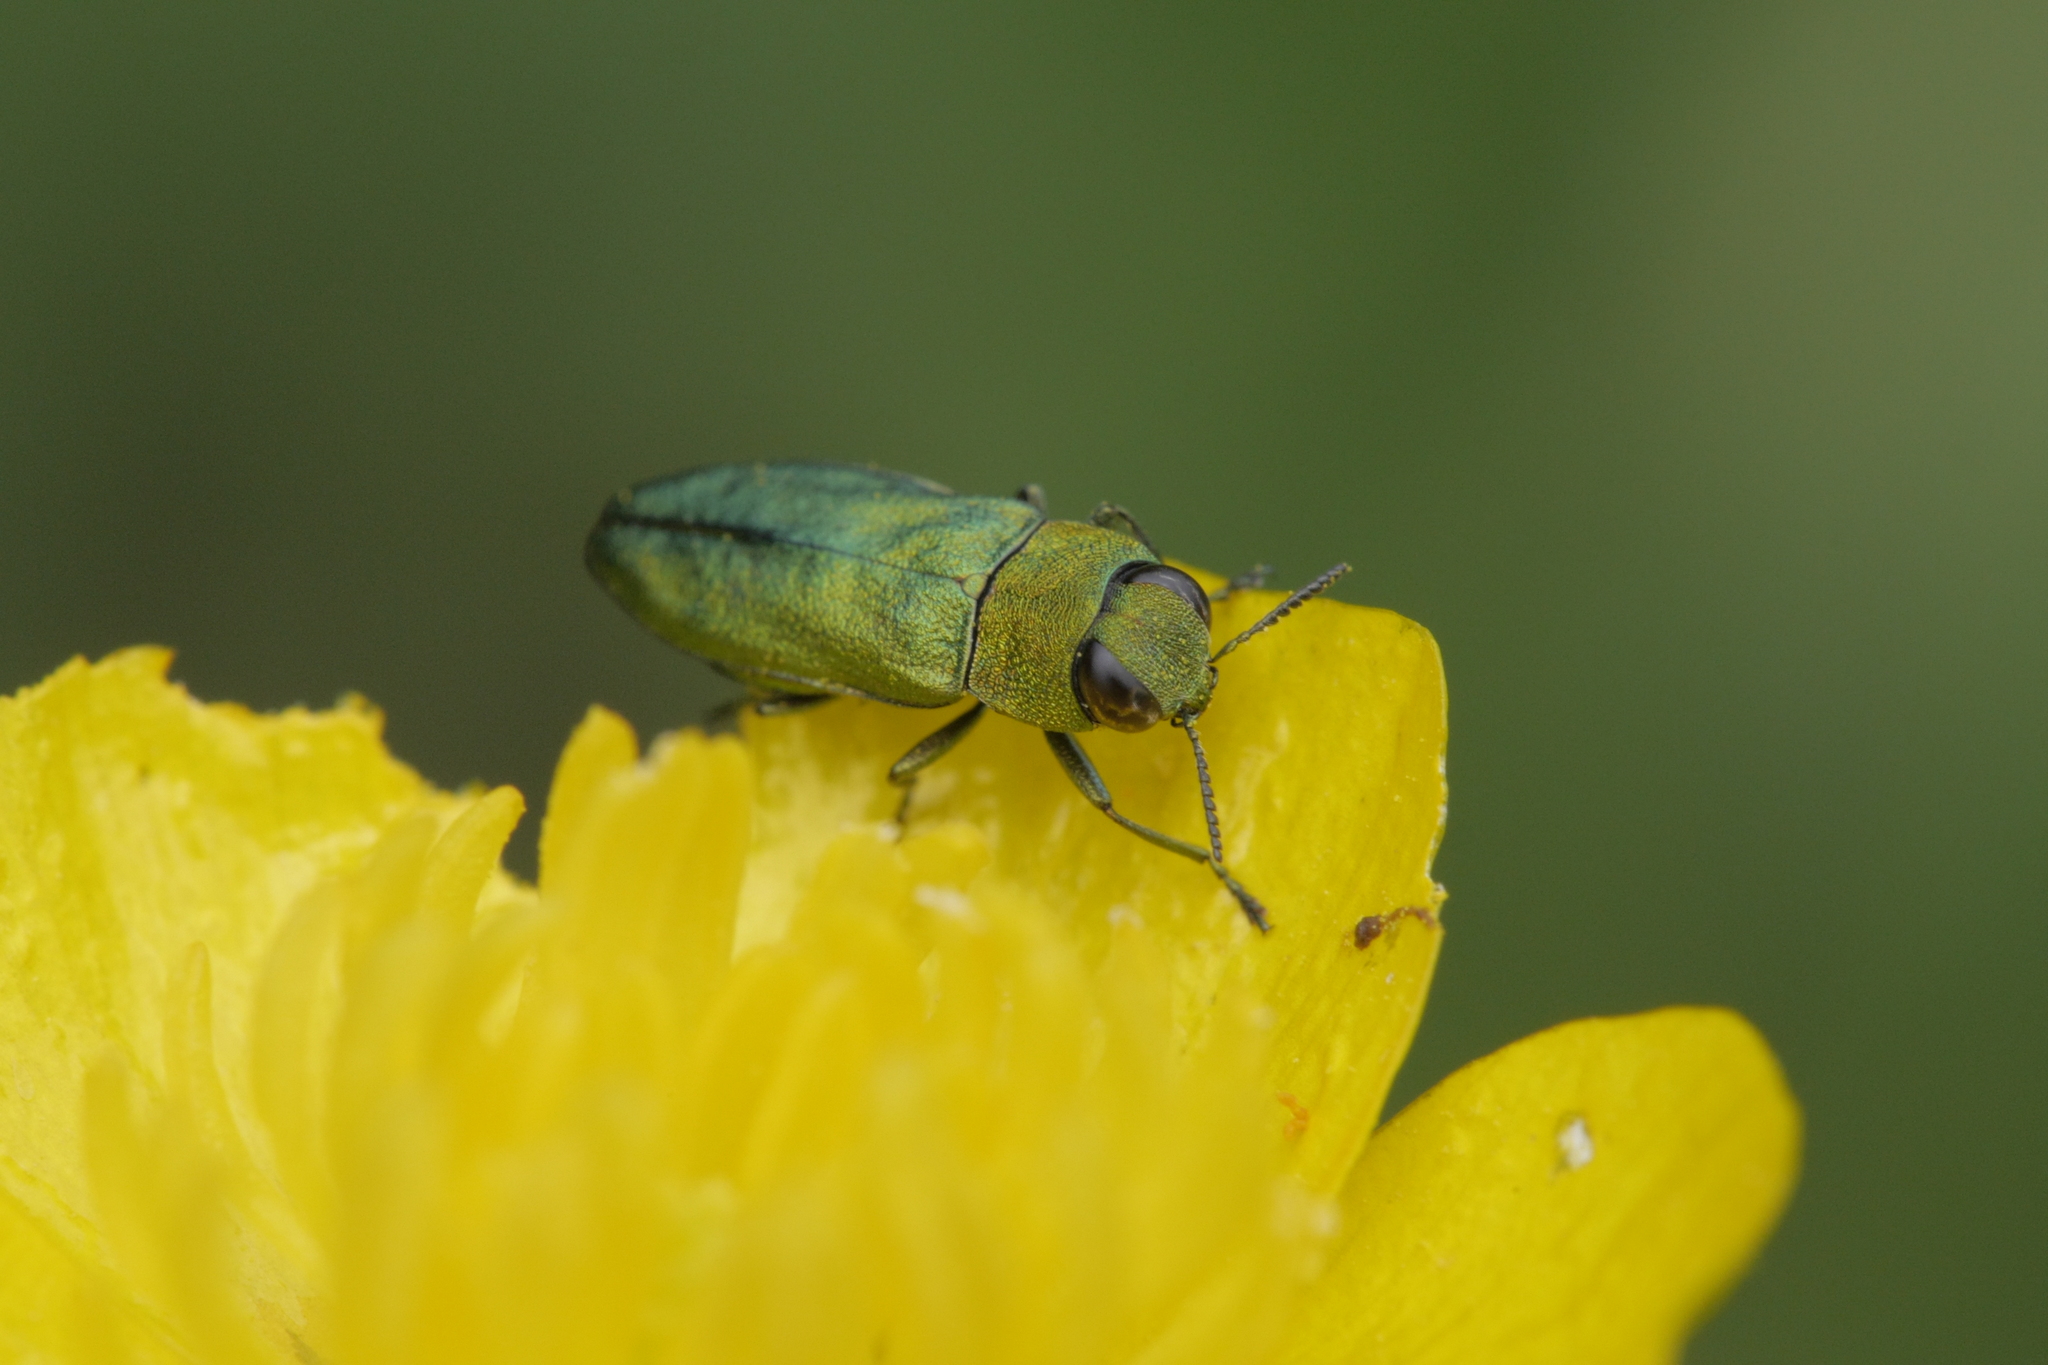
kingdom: Animalia
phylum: Arthropoda
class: Insecta
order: Coleoptera
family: Buprestidae
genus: Anthaxia
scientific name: Anthaxia nitidula
